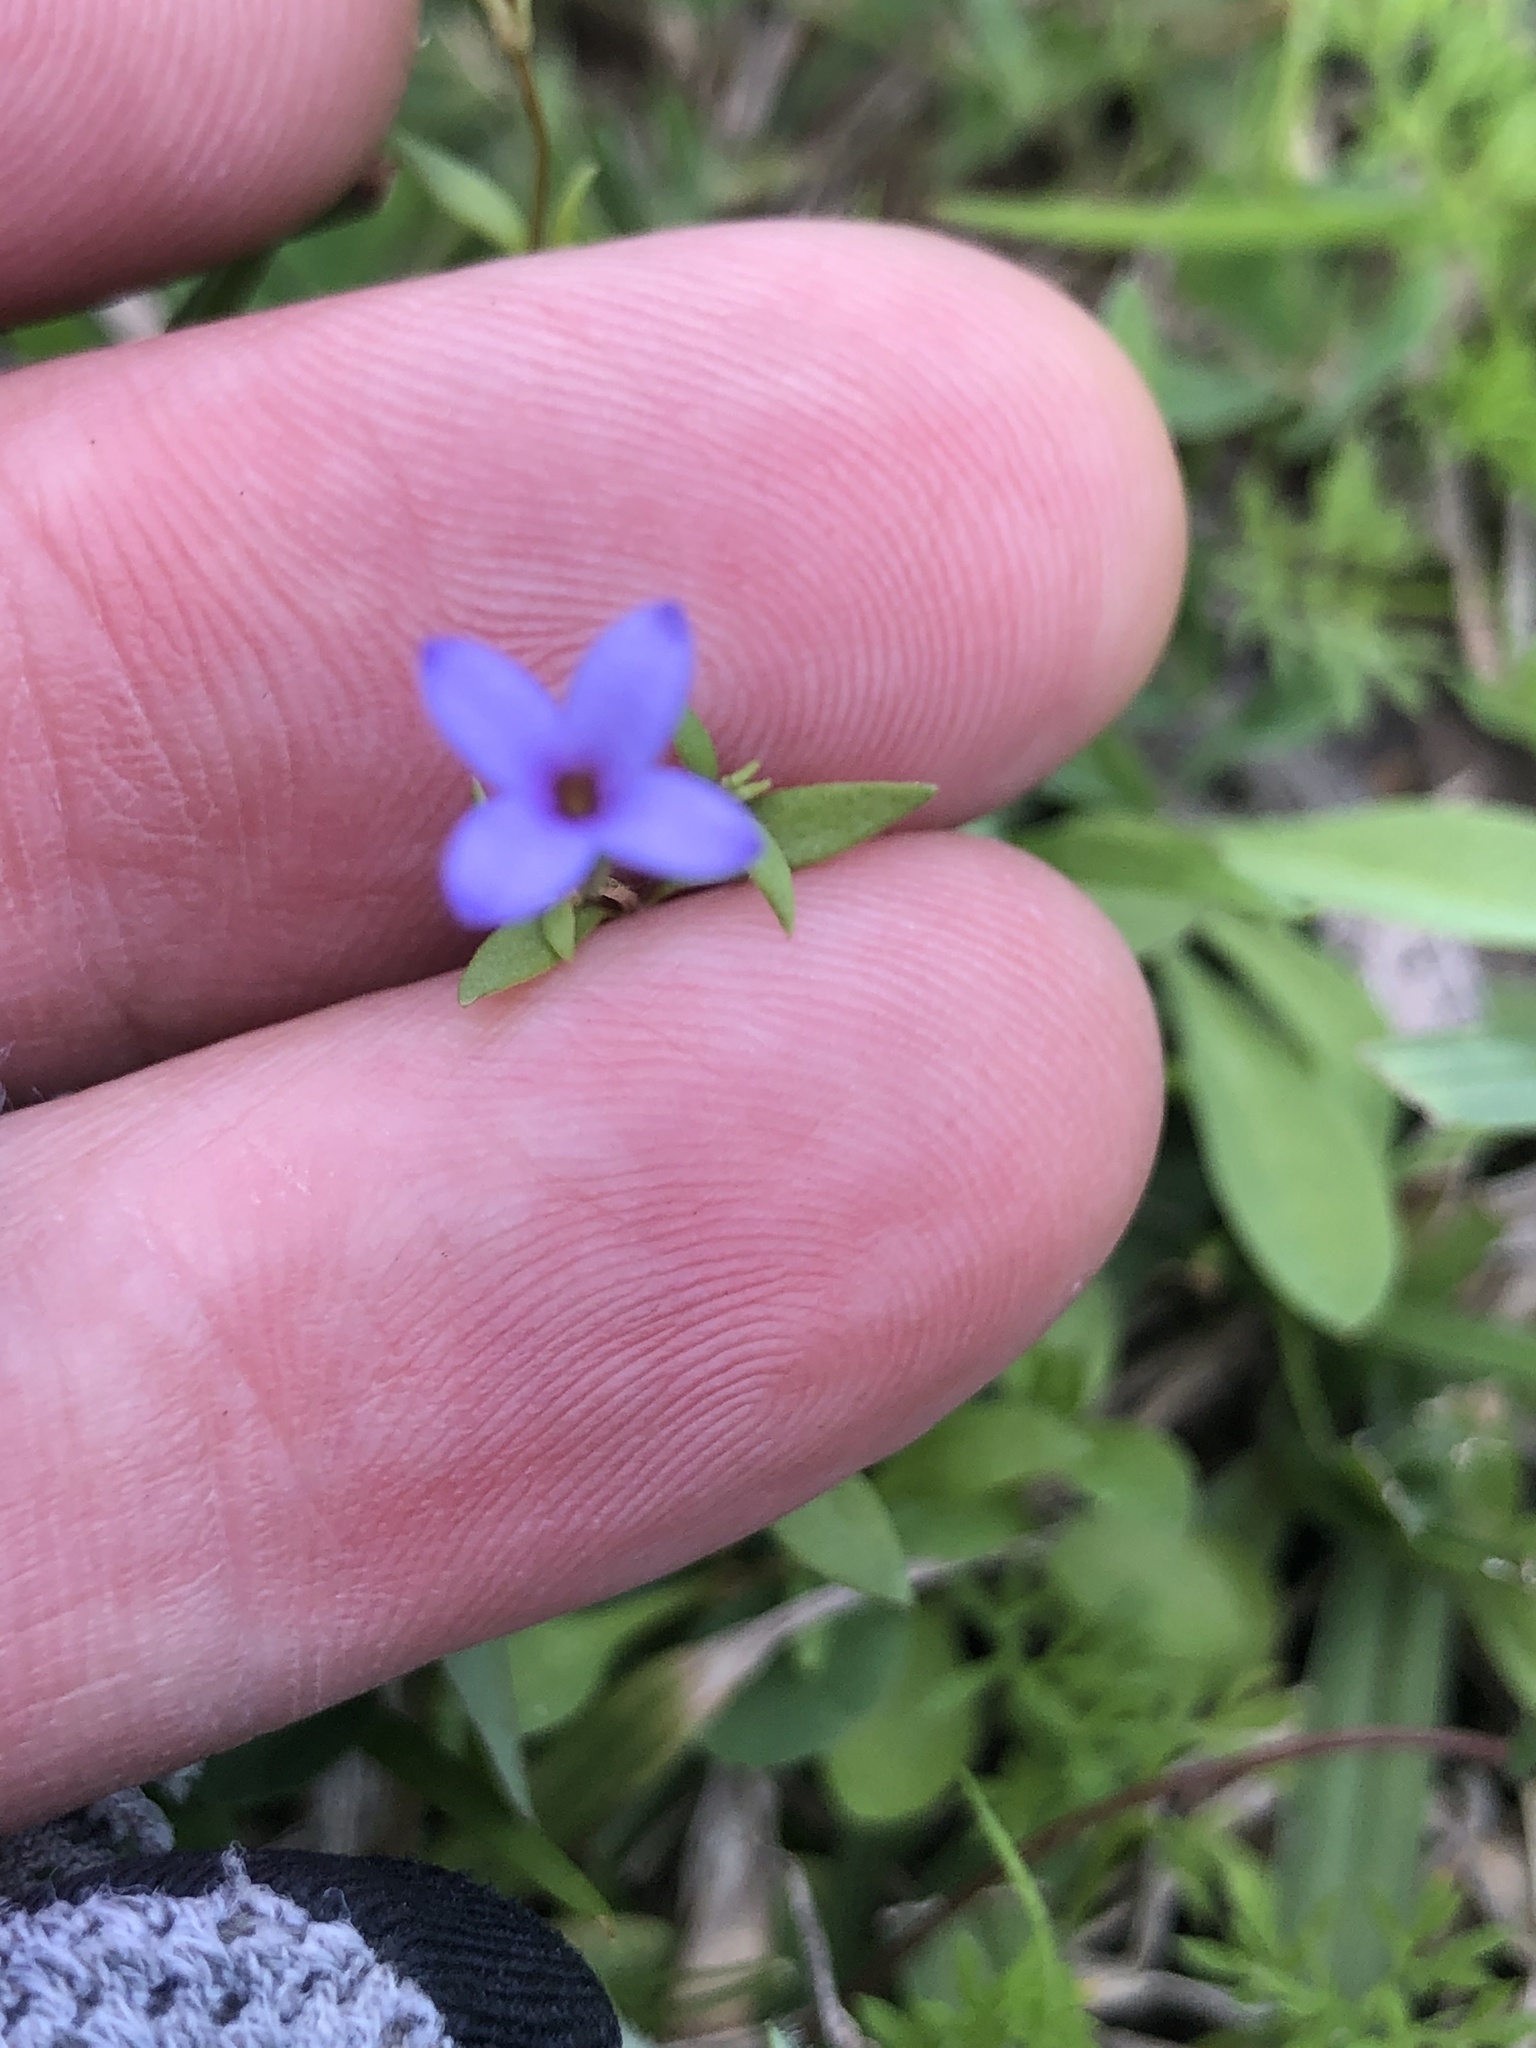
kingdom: Plantae
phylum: Tracheophyta
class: Magnoliopsida
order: Gentianales
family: Rubiaceae
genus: Houstonia
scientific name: Houstonia pusilla
